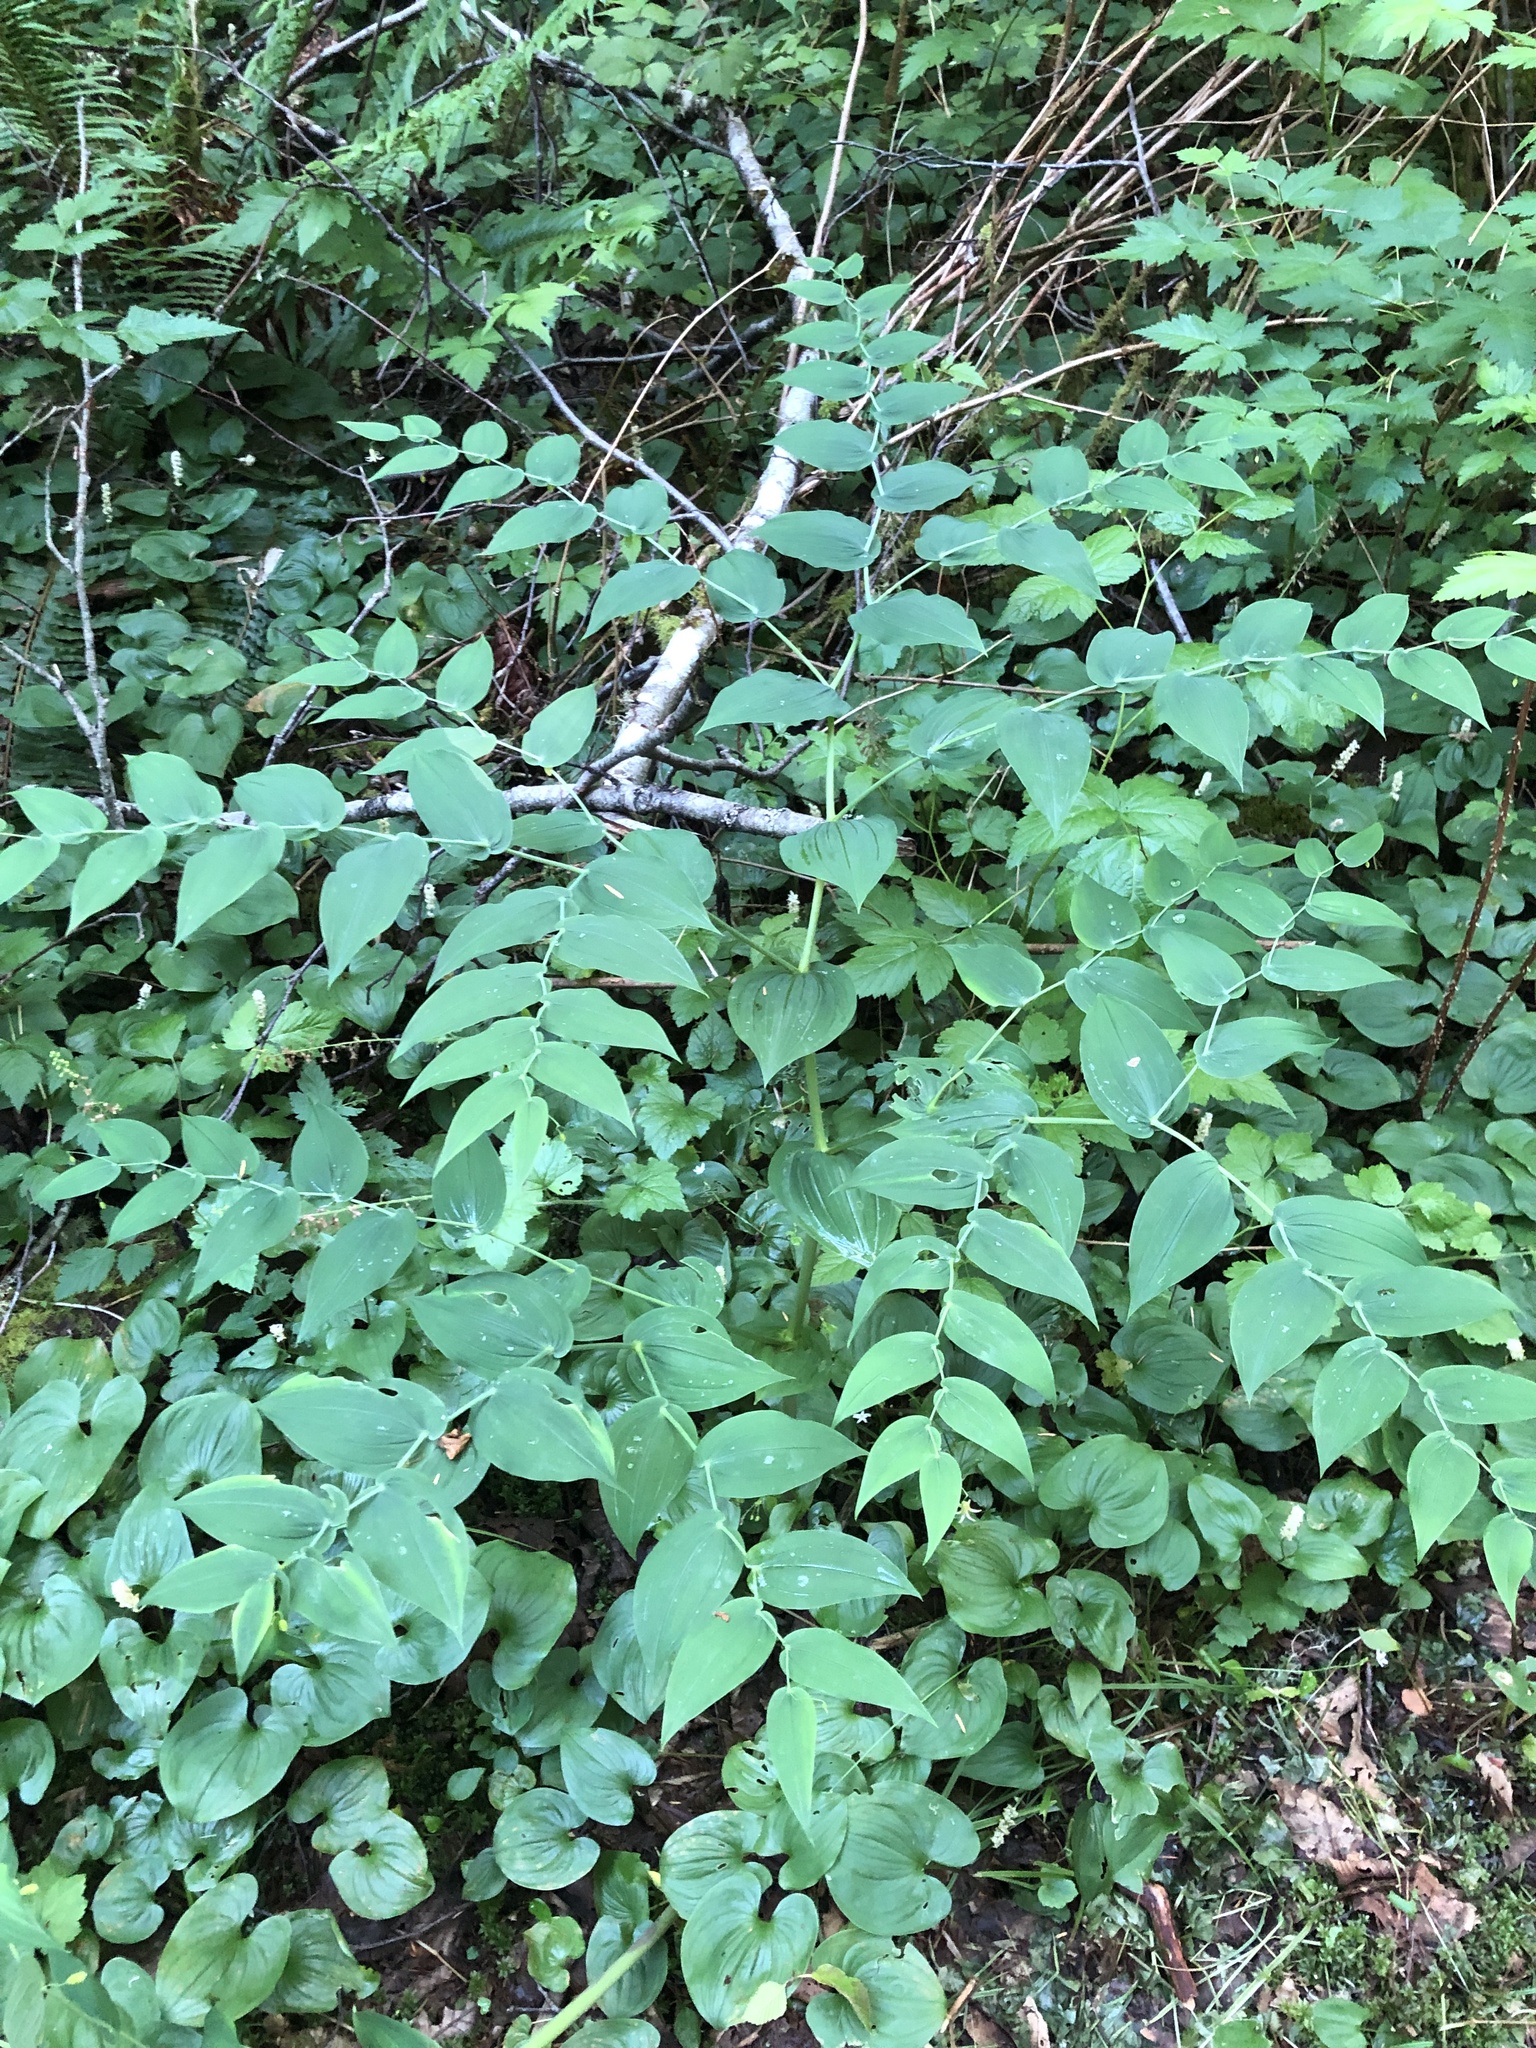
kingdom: Plantae
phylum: Tracheophyta
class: Liliopsida
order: Liliales
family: Liliaceae
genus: Streptopus
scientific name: Streptopus amplexifolius
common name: Clasp twisted stalk
